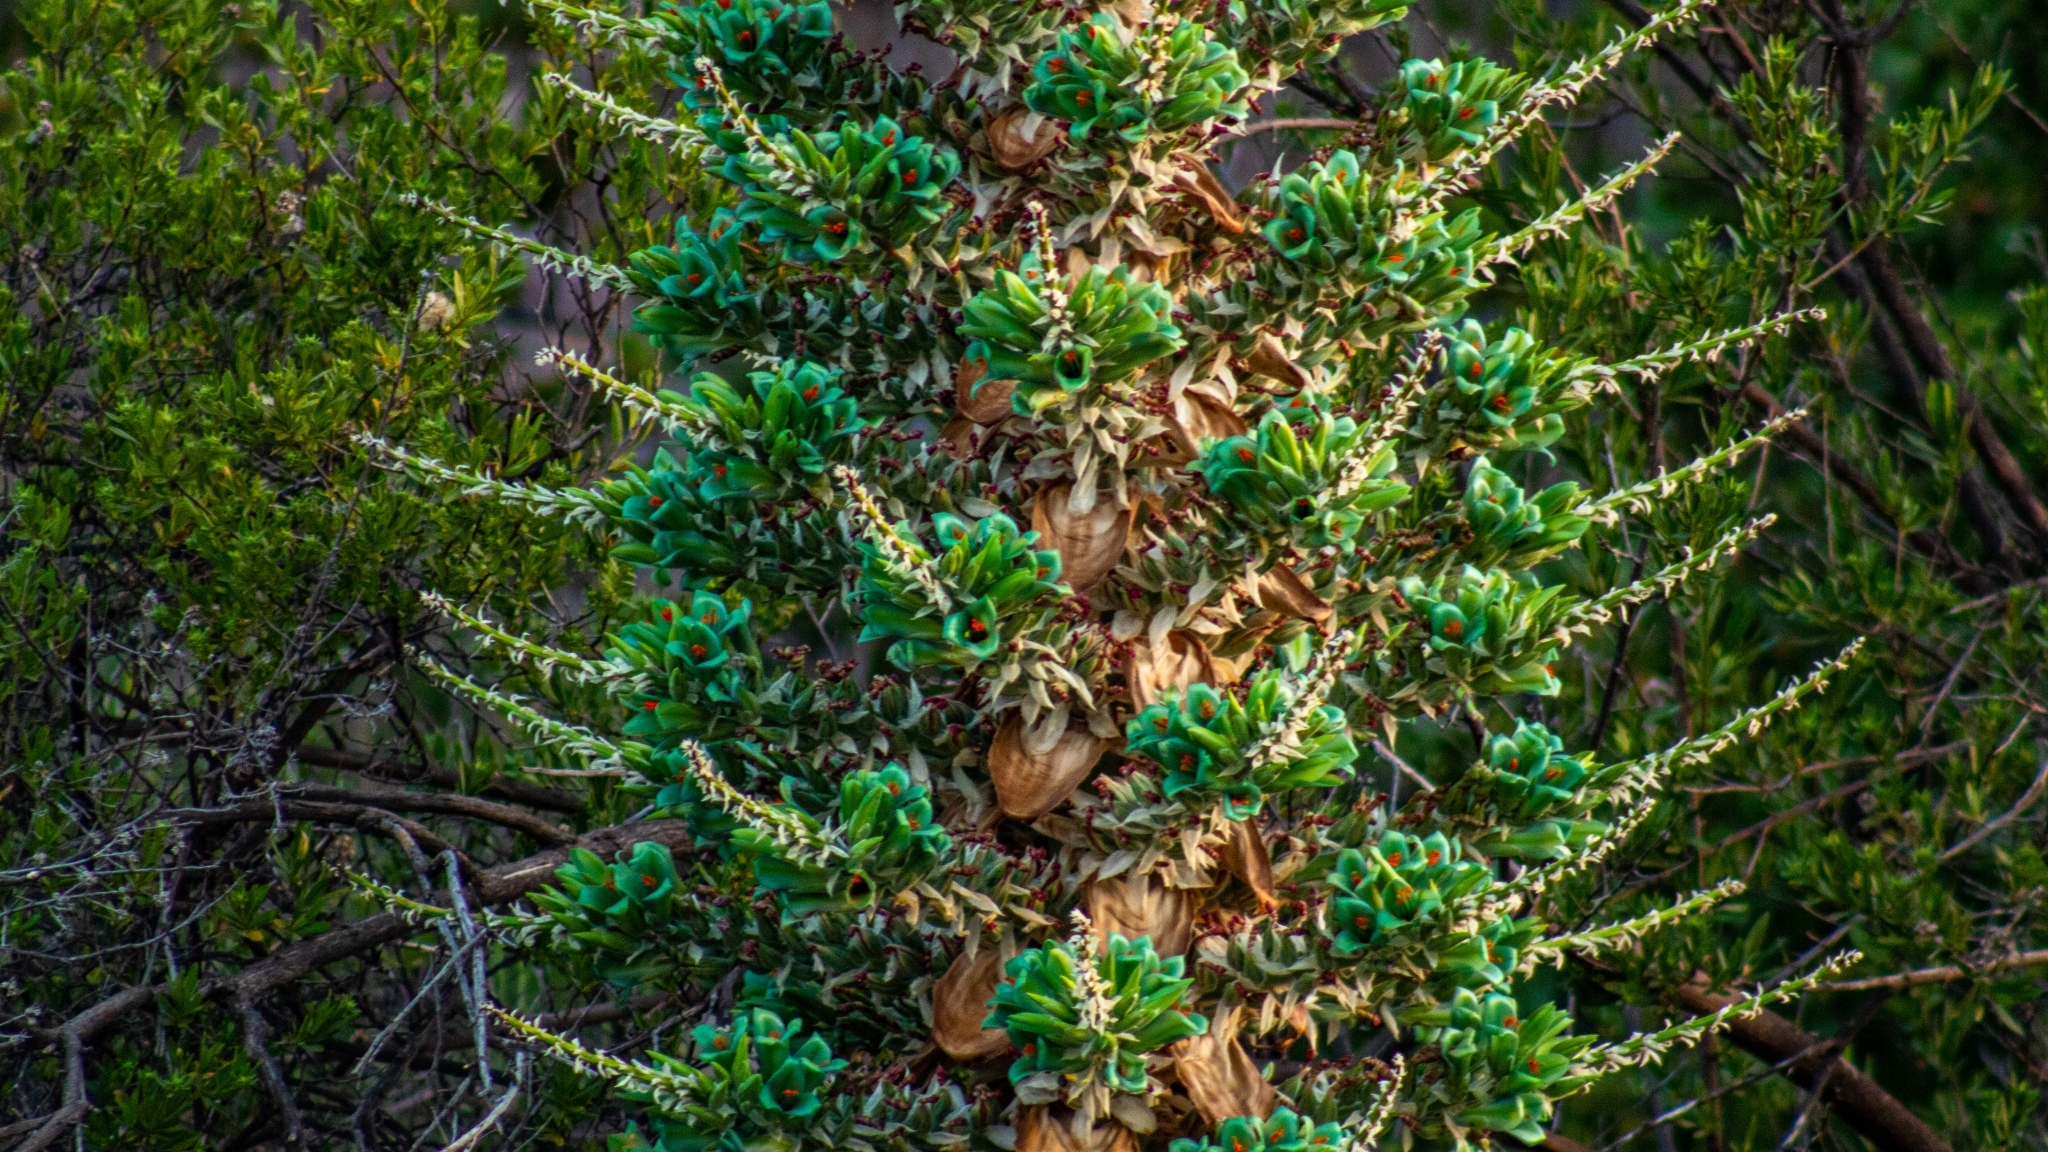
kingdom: Plantae
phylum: Tracheophyta
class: Liliopsida
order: Poales
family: Bromeliaceae
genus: Puya
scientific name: Puya alpestris
